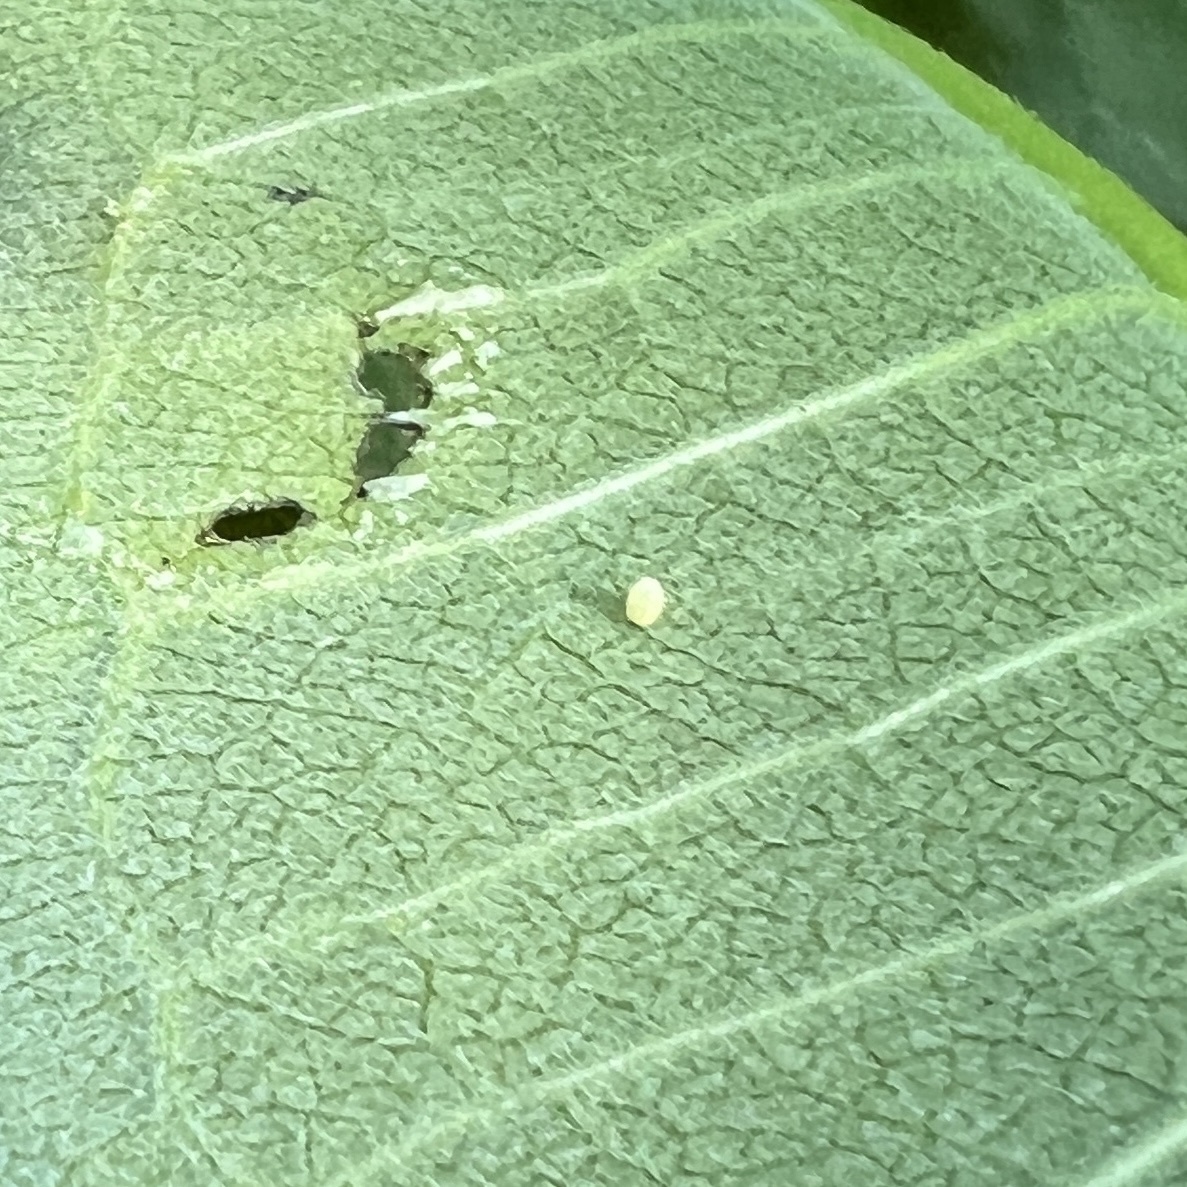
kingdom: Animalia
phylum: Arthropoda
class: Insecta
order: Lepidoptera
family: Nymphalidae
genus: Danaus
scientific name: Danaus plexippus
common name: Monarch
